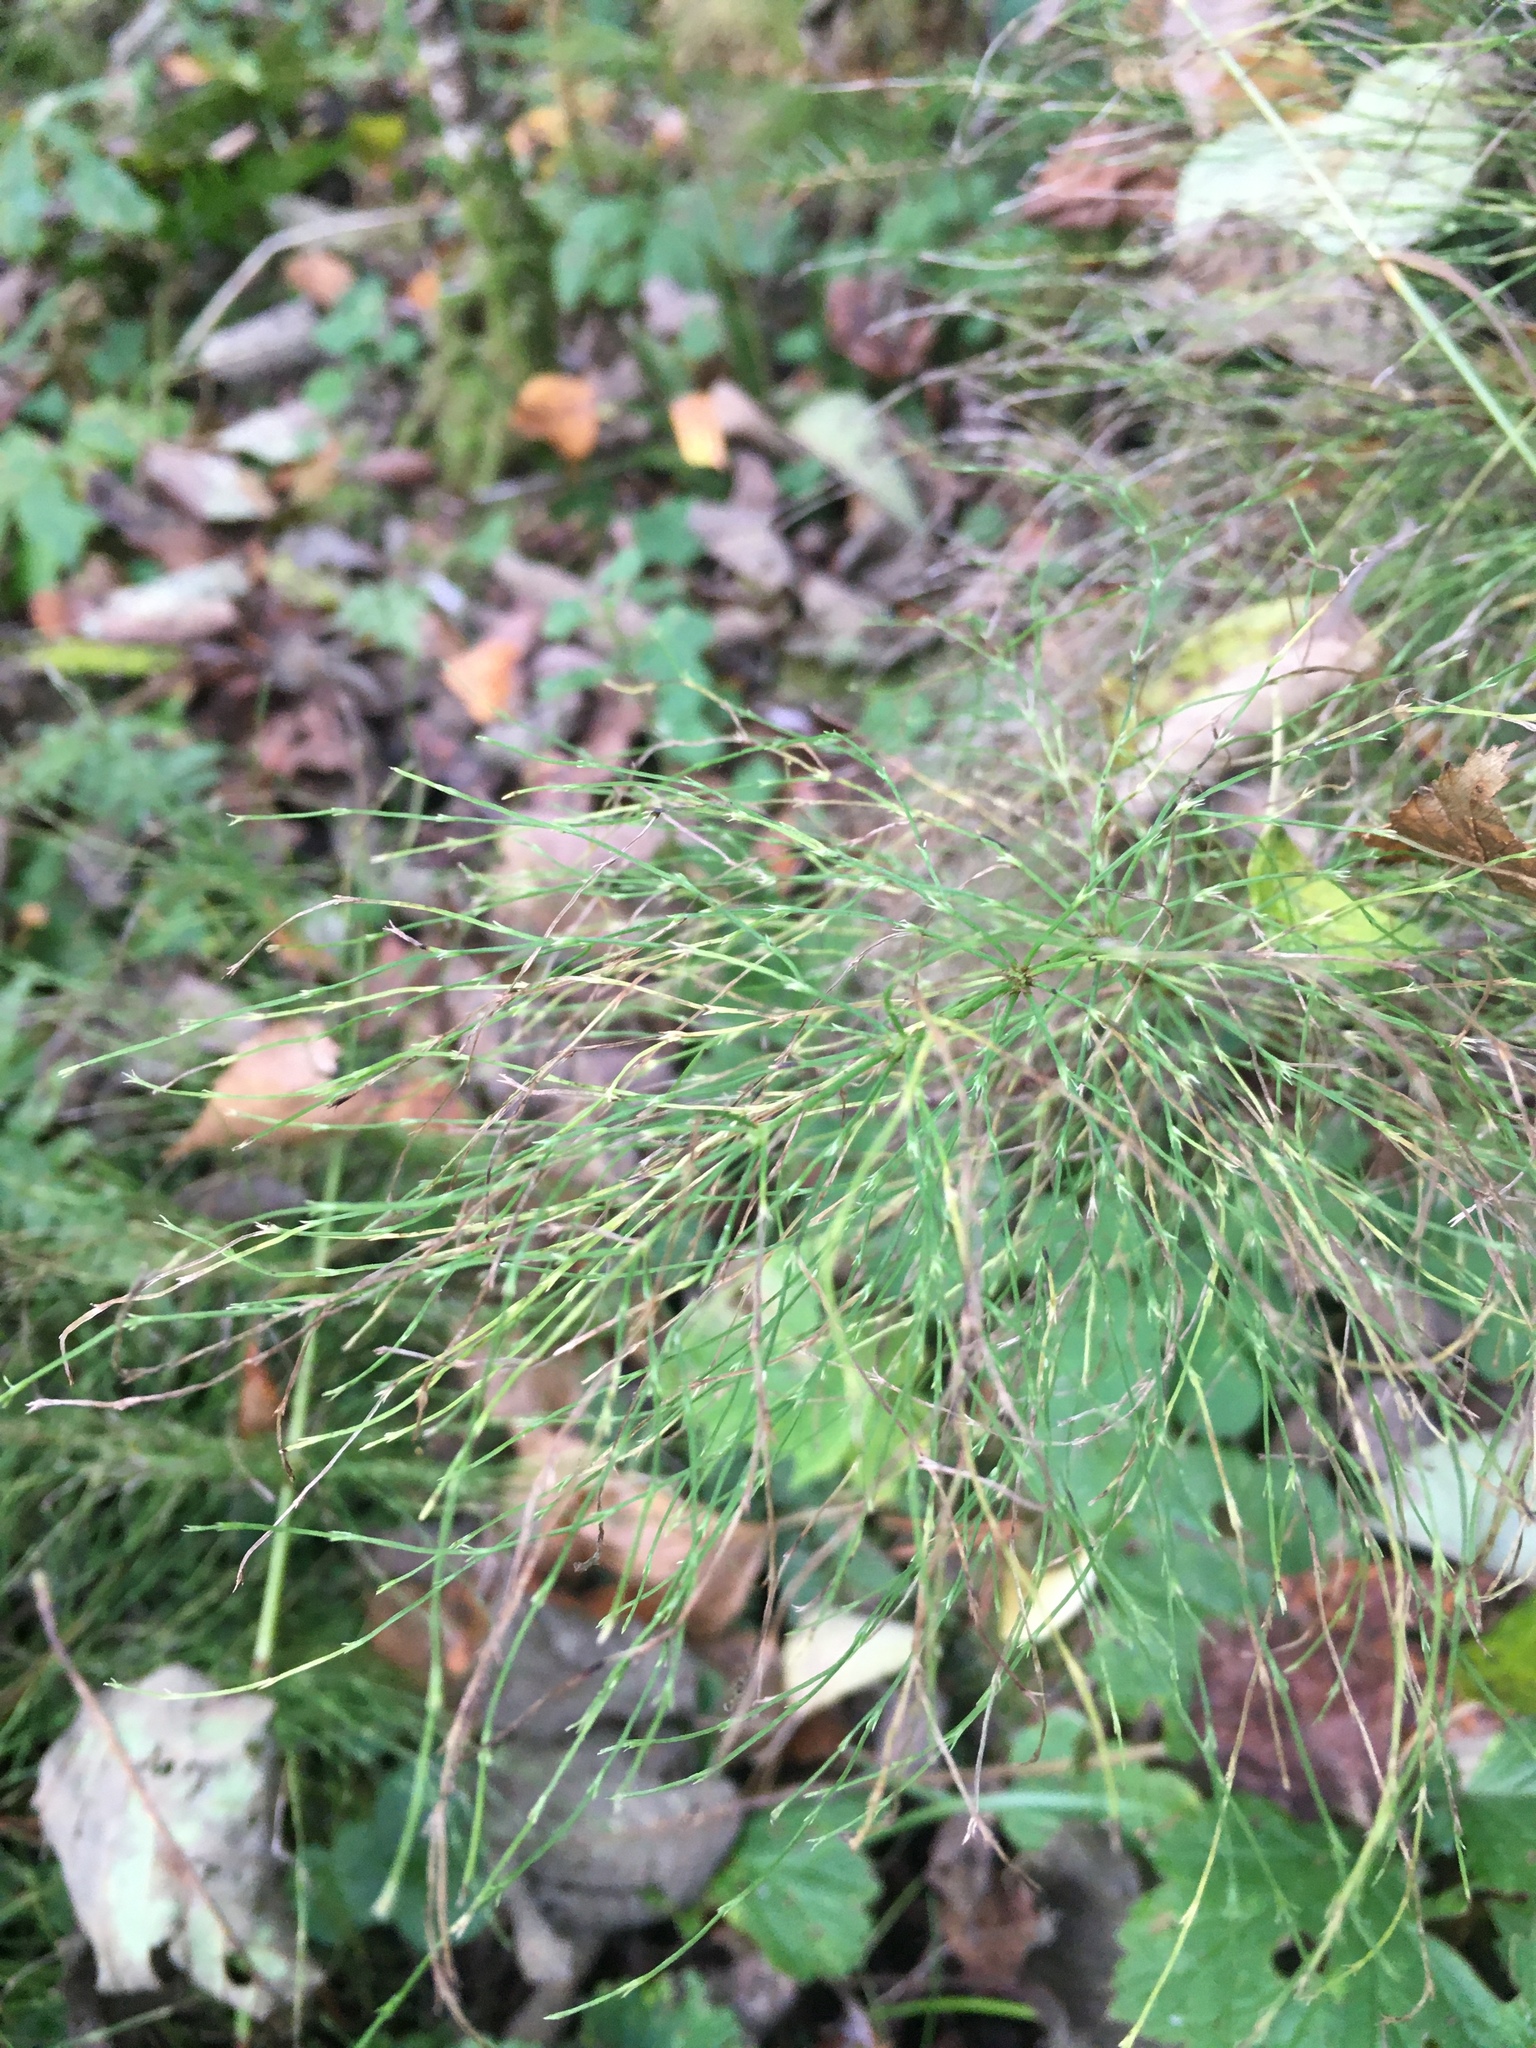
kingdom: Plantae
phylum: Tracheophyta
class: Polypodiopsida
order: Equisetales
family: Equisetaceae
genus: Equisetum
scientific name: Equisetum sylvaticum
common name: Wood horsetail
